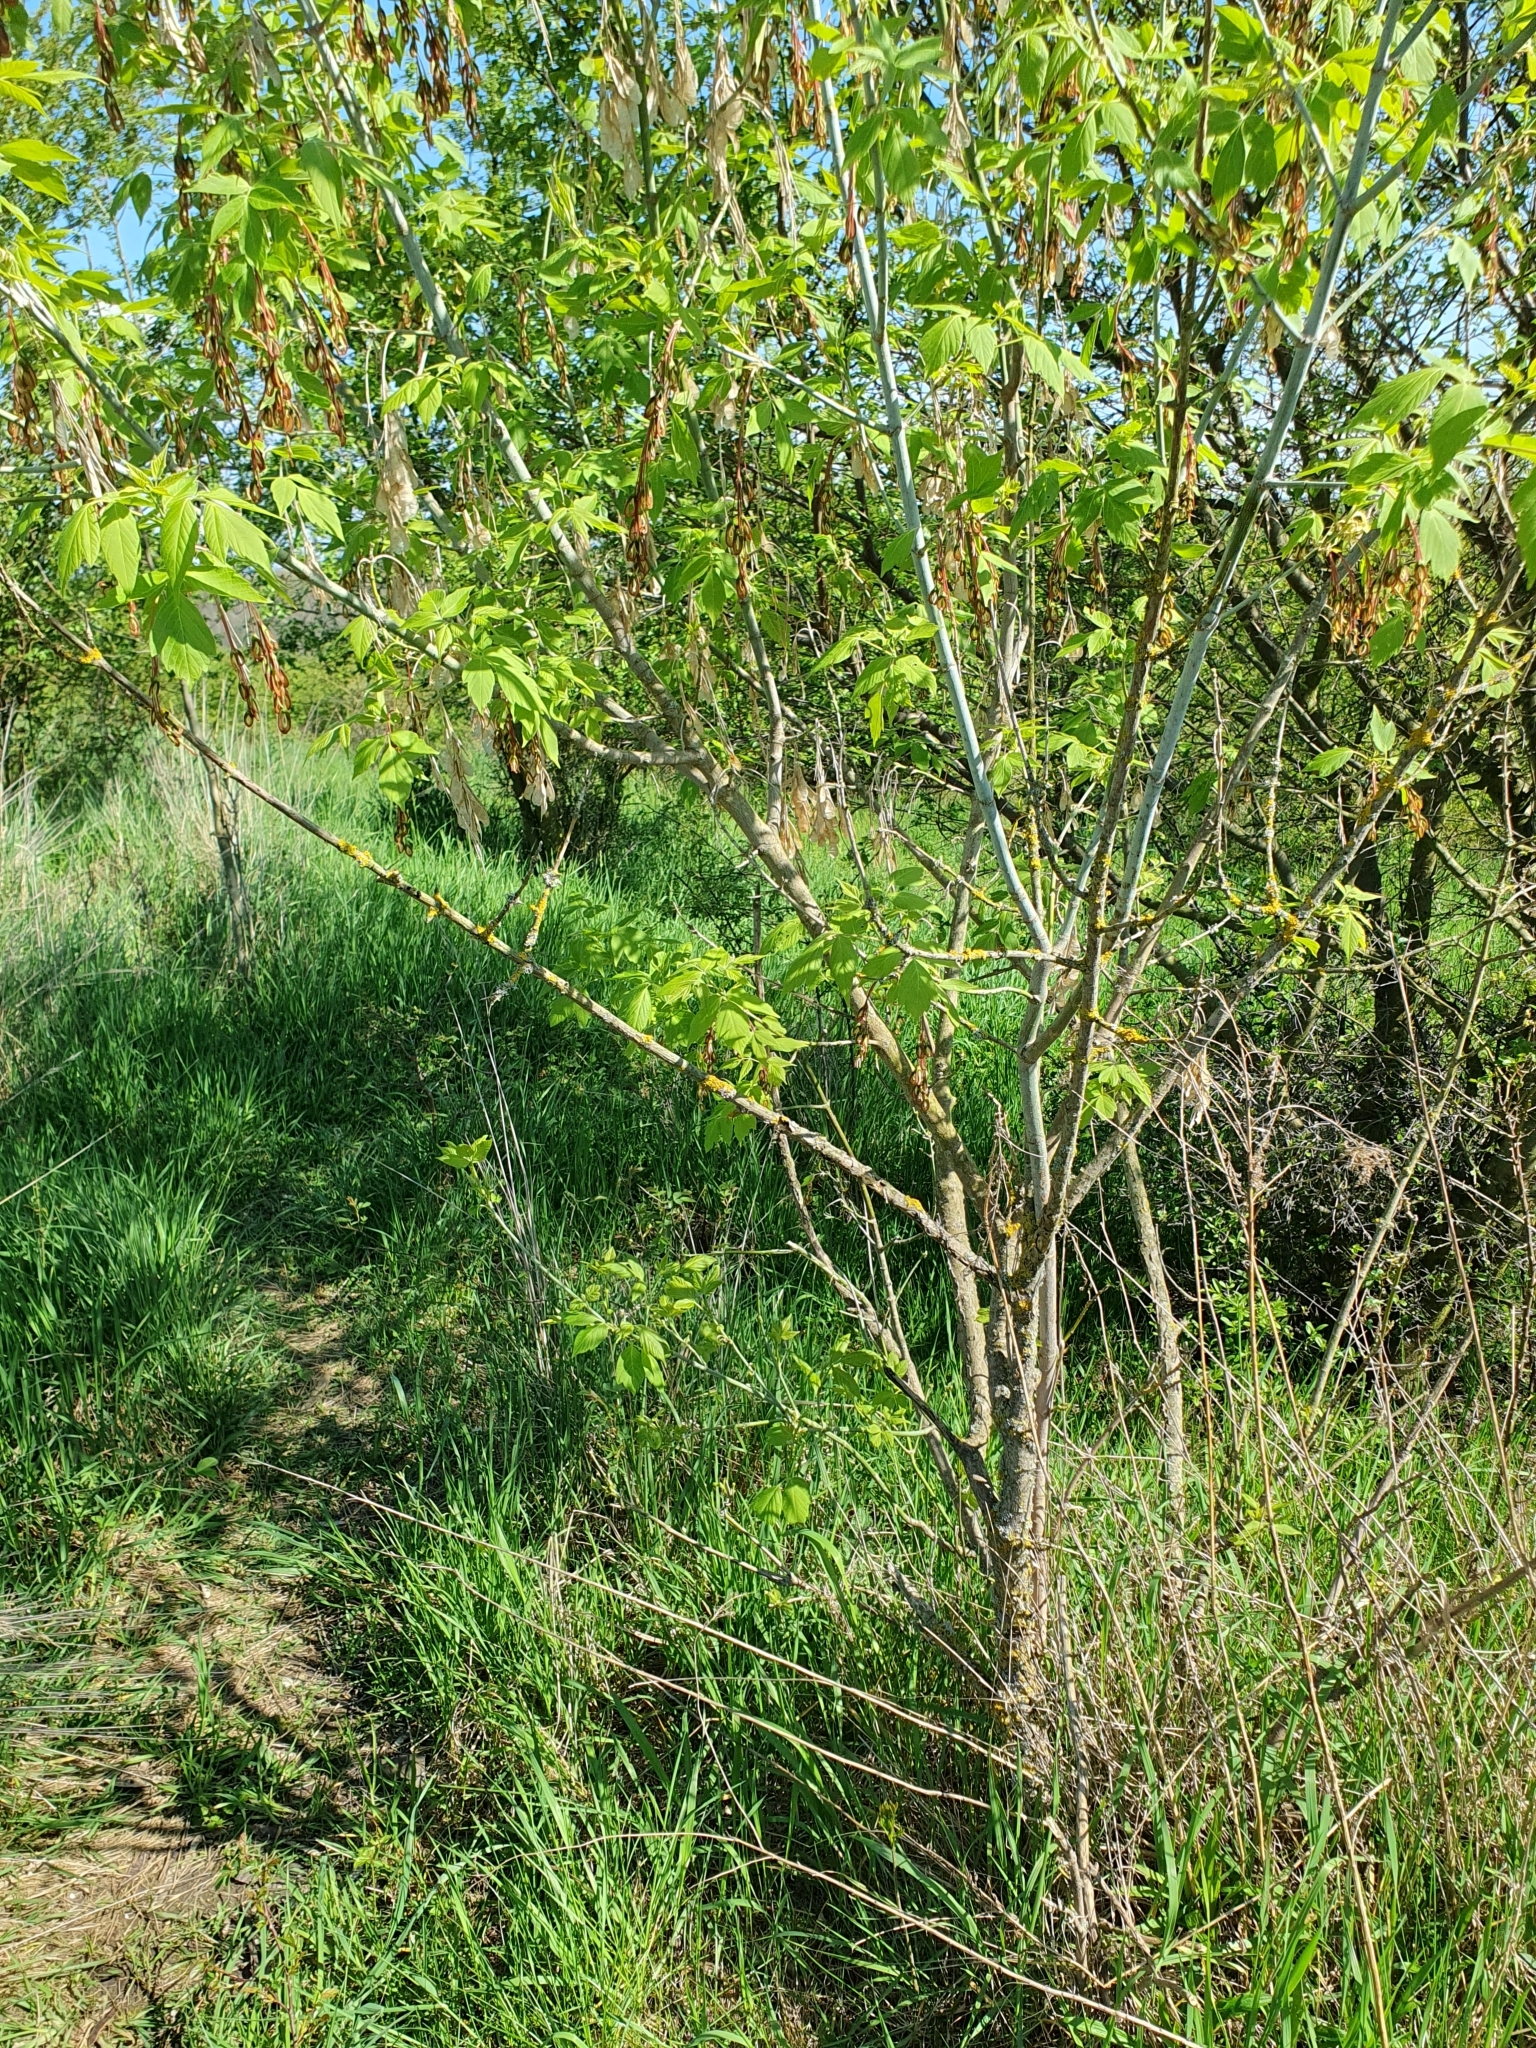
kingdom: Plantae
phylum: Tracheophyta
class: Magnoliopsida
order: Lamiales
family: Oleaceae
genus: Fraxinus
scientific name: Fraxinus excelsior
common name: European ash
